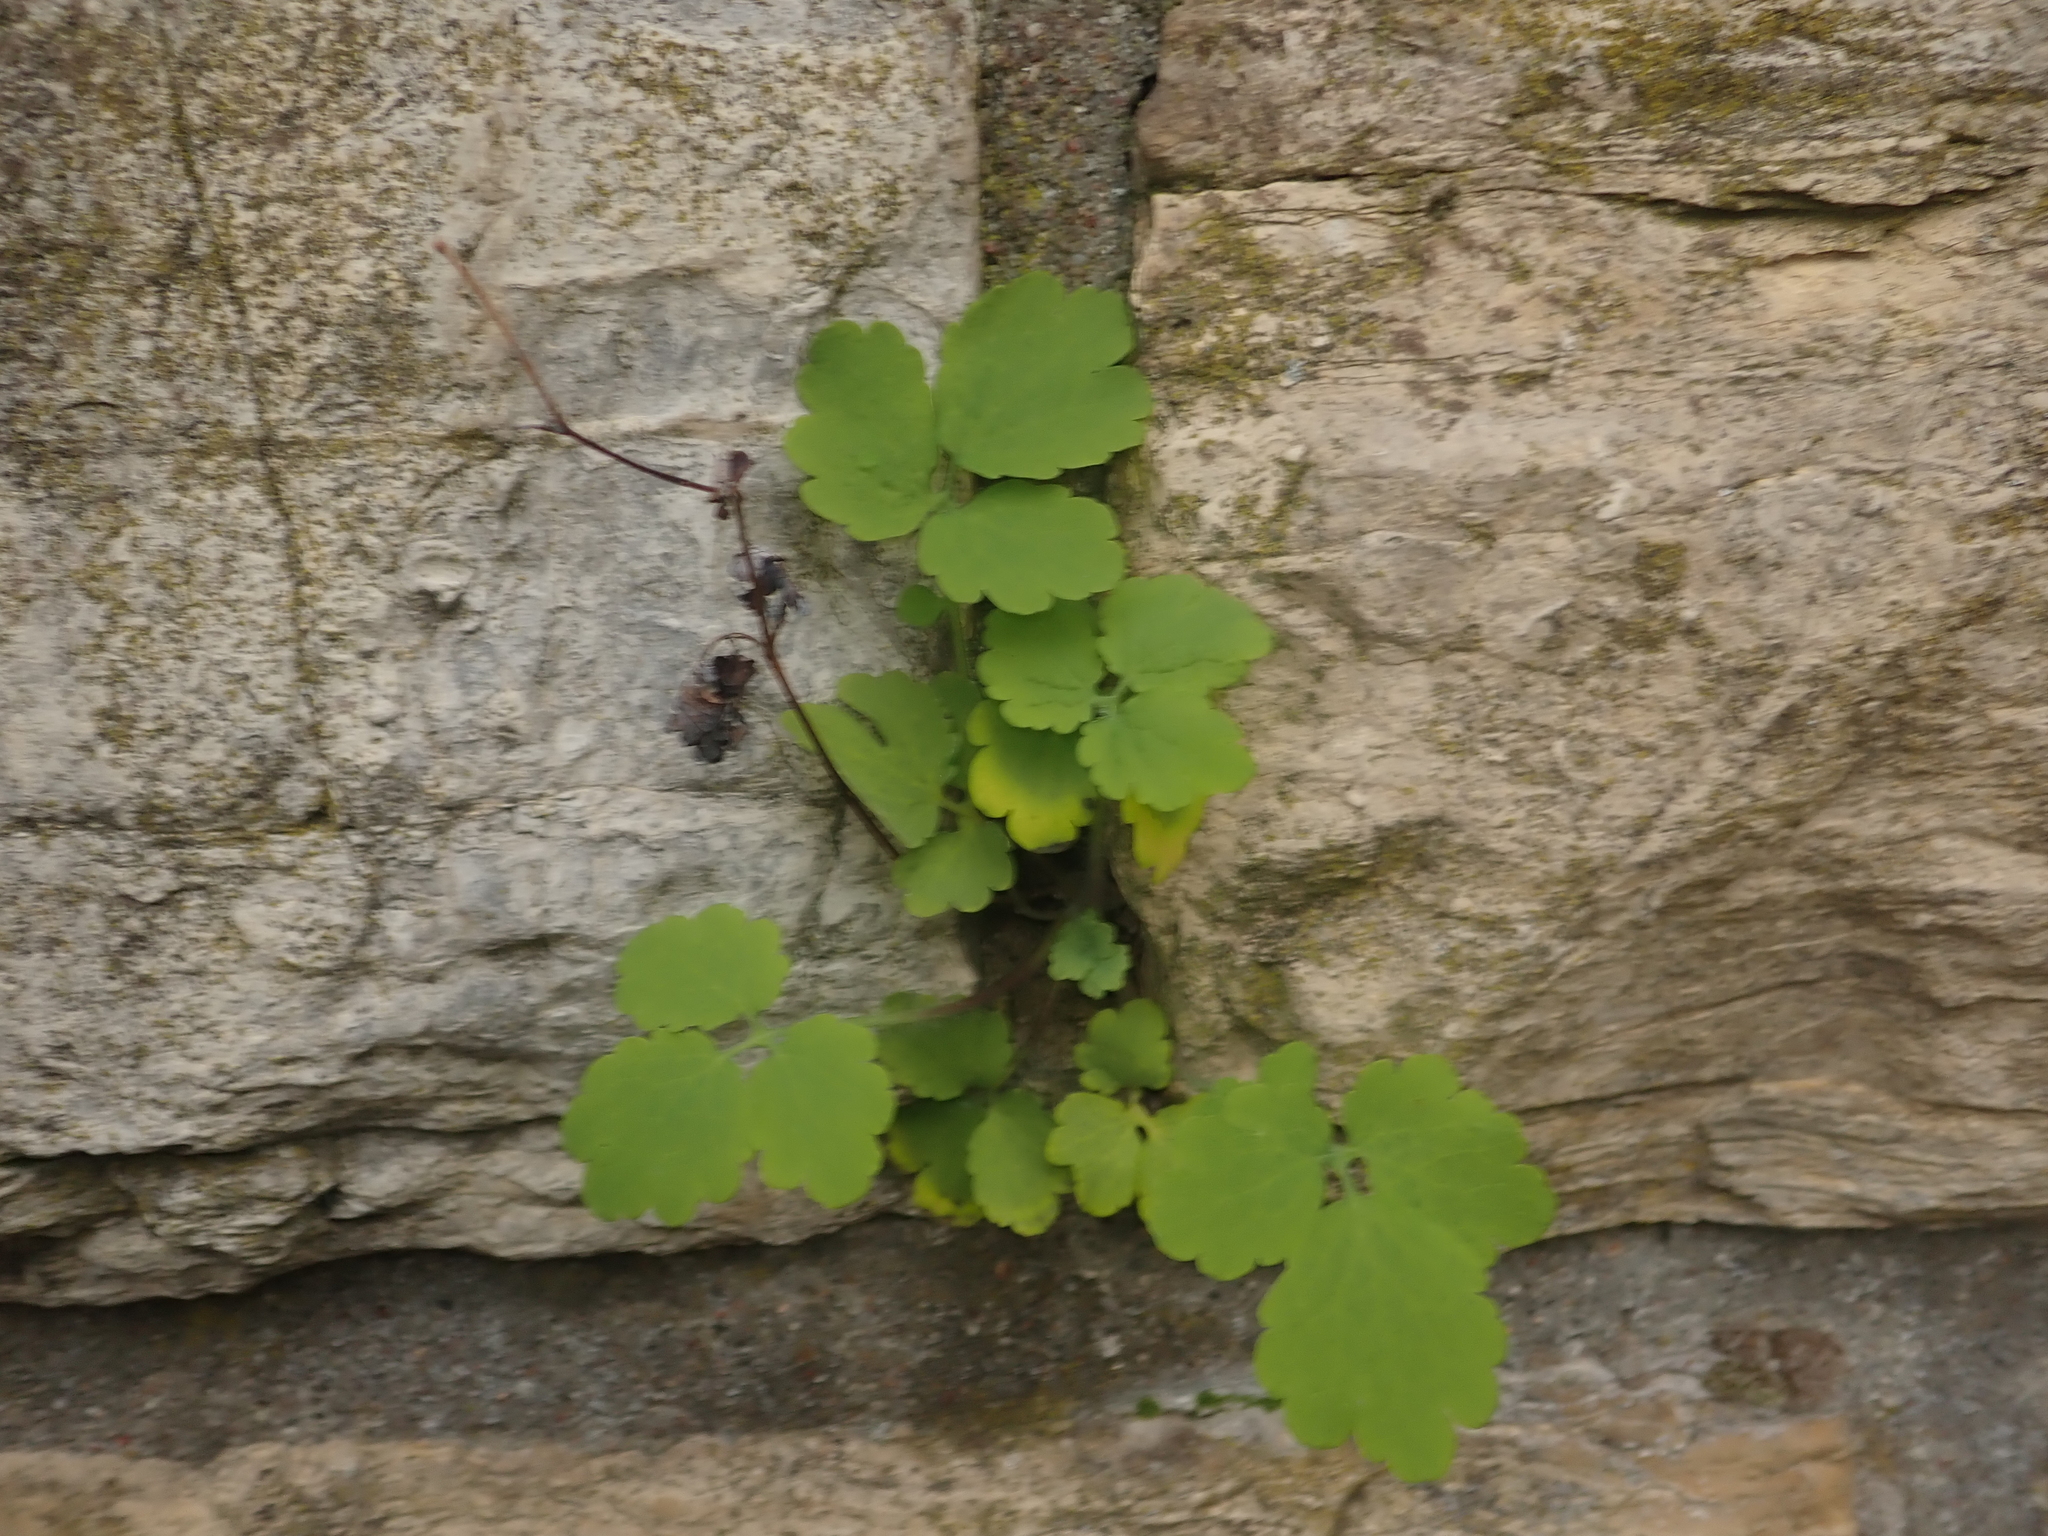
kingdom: Plantae
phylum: Tracheophyta
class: Magnoliopsida
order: Ranunculales
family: Papaveraceae
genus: Chelidonium
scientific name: Chelidonium majus
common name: Greater celandine
